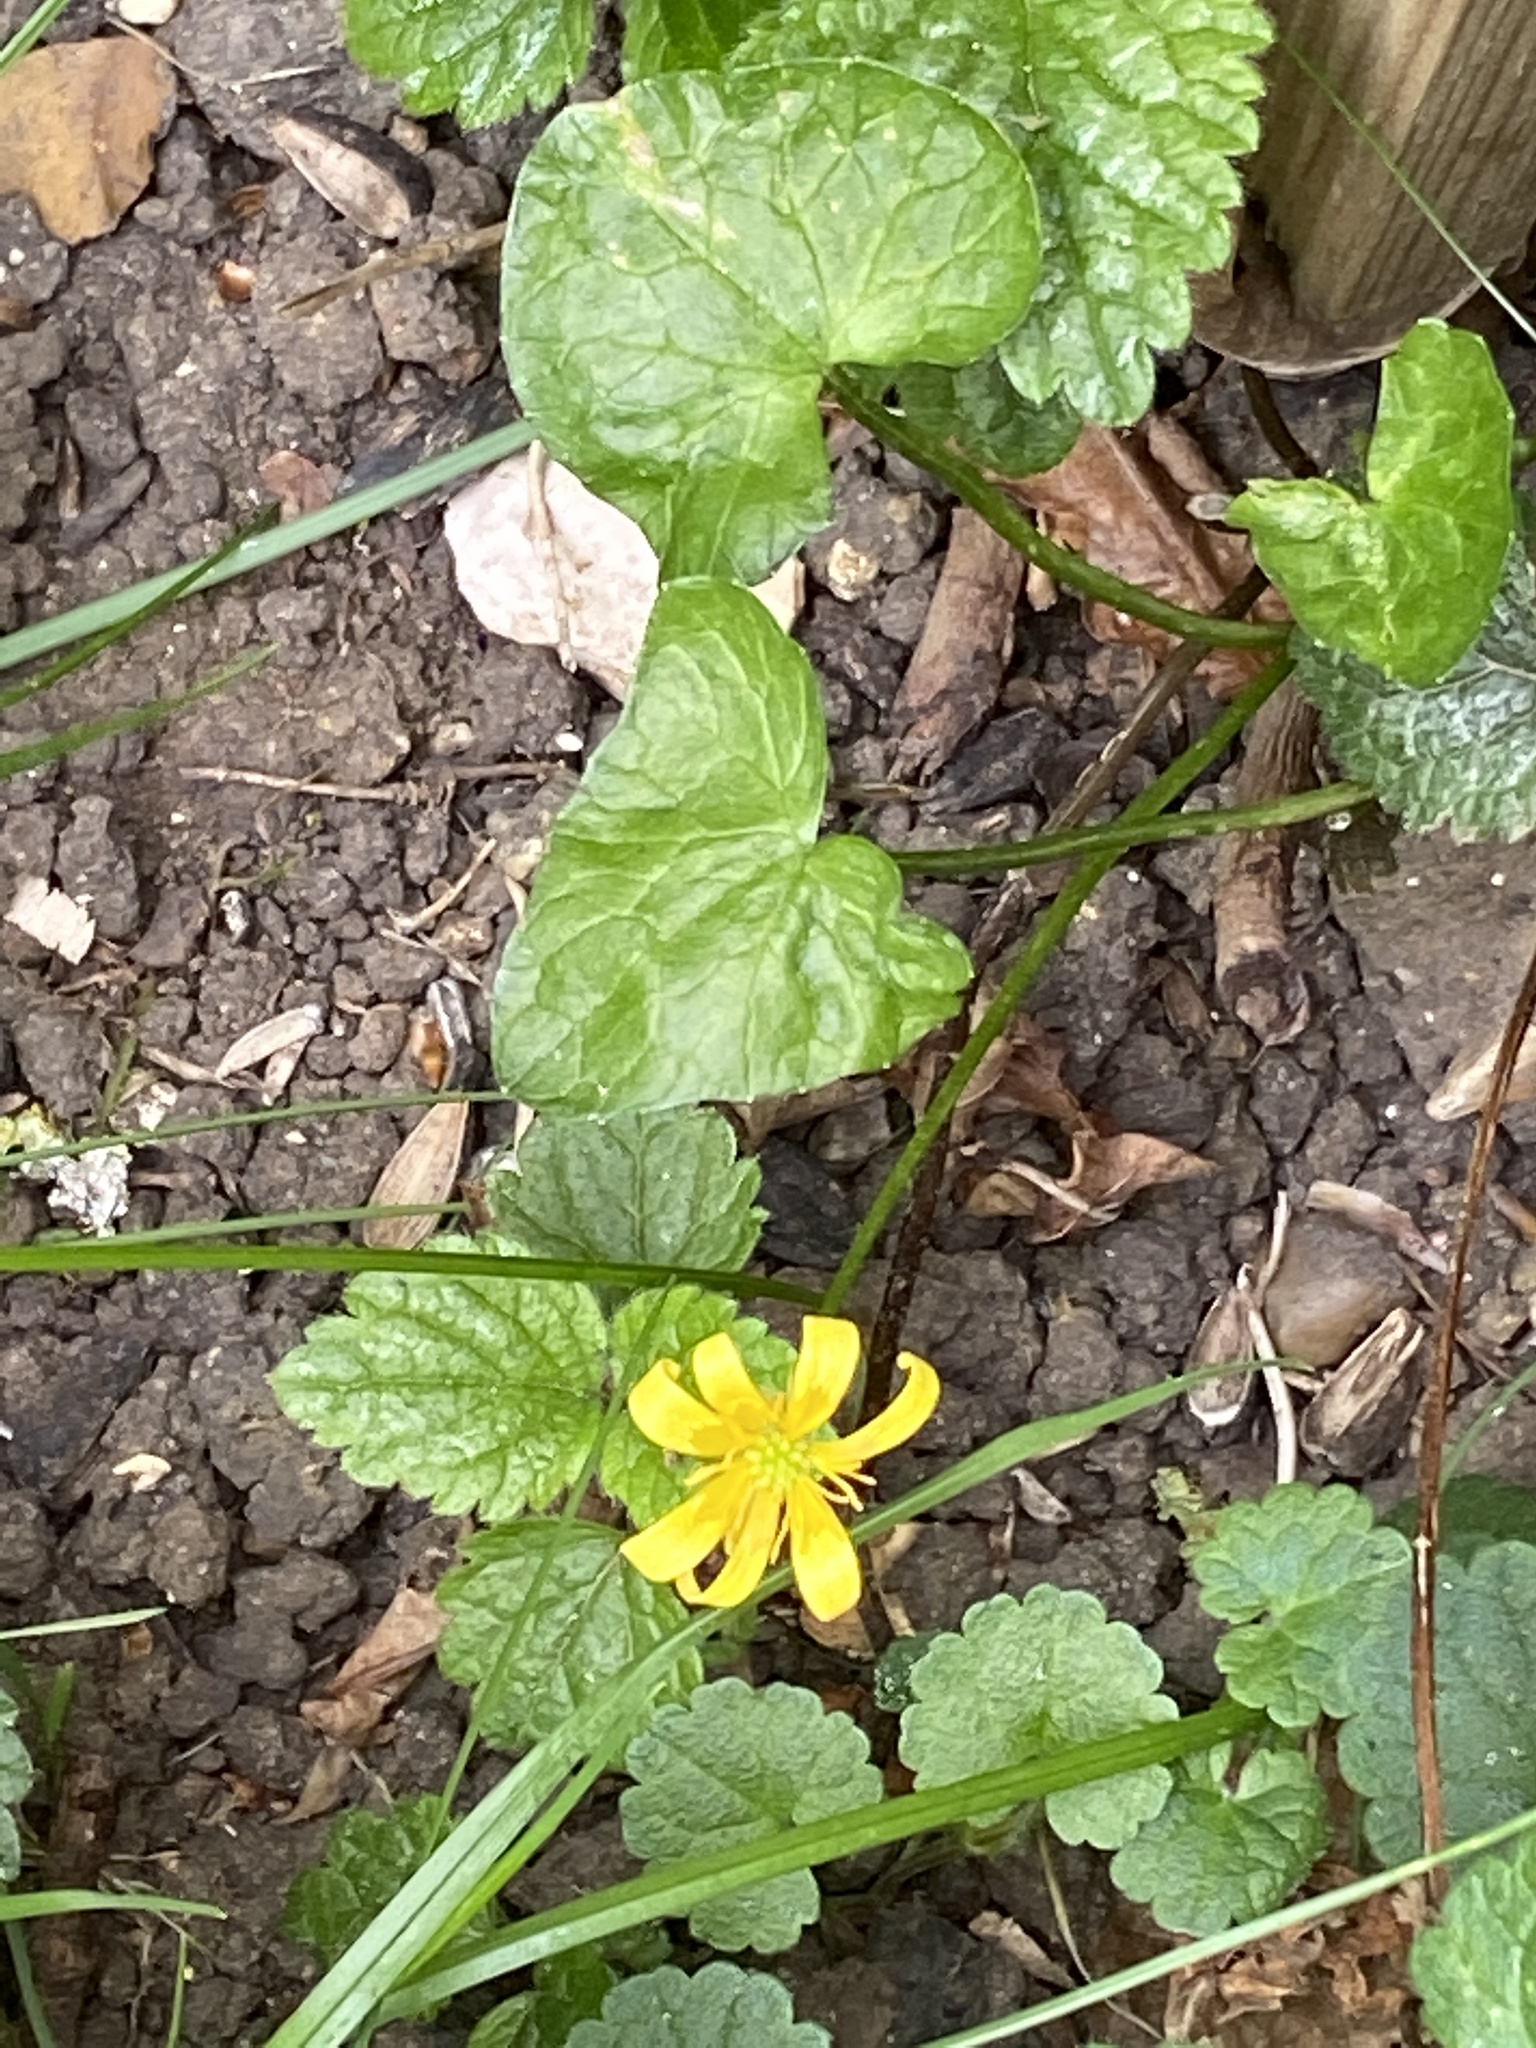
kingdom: Plantae
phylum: Tracheophyta
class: Magnoliopsida
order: Ranunculales
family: Ranunculaceae
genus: Ficaria
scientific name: Ficaria verna
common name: Lesser celandine
